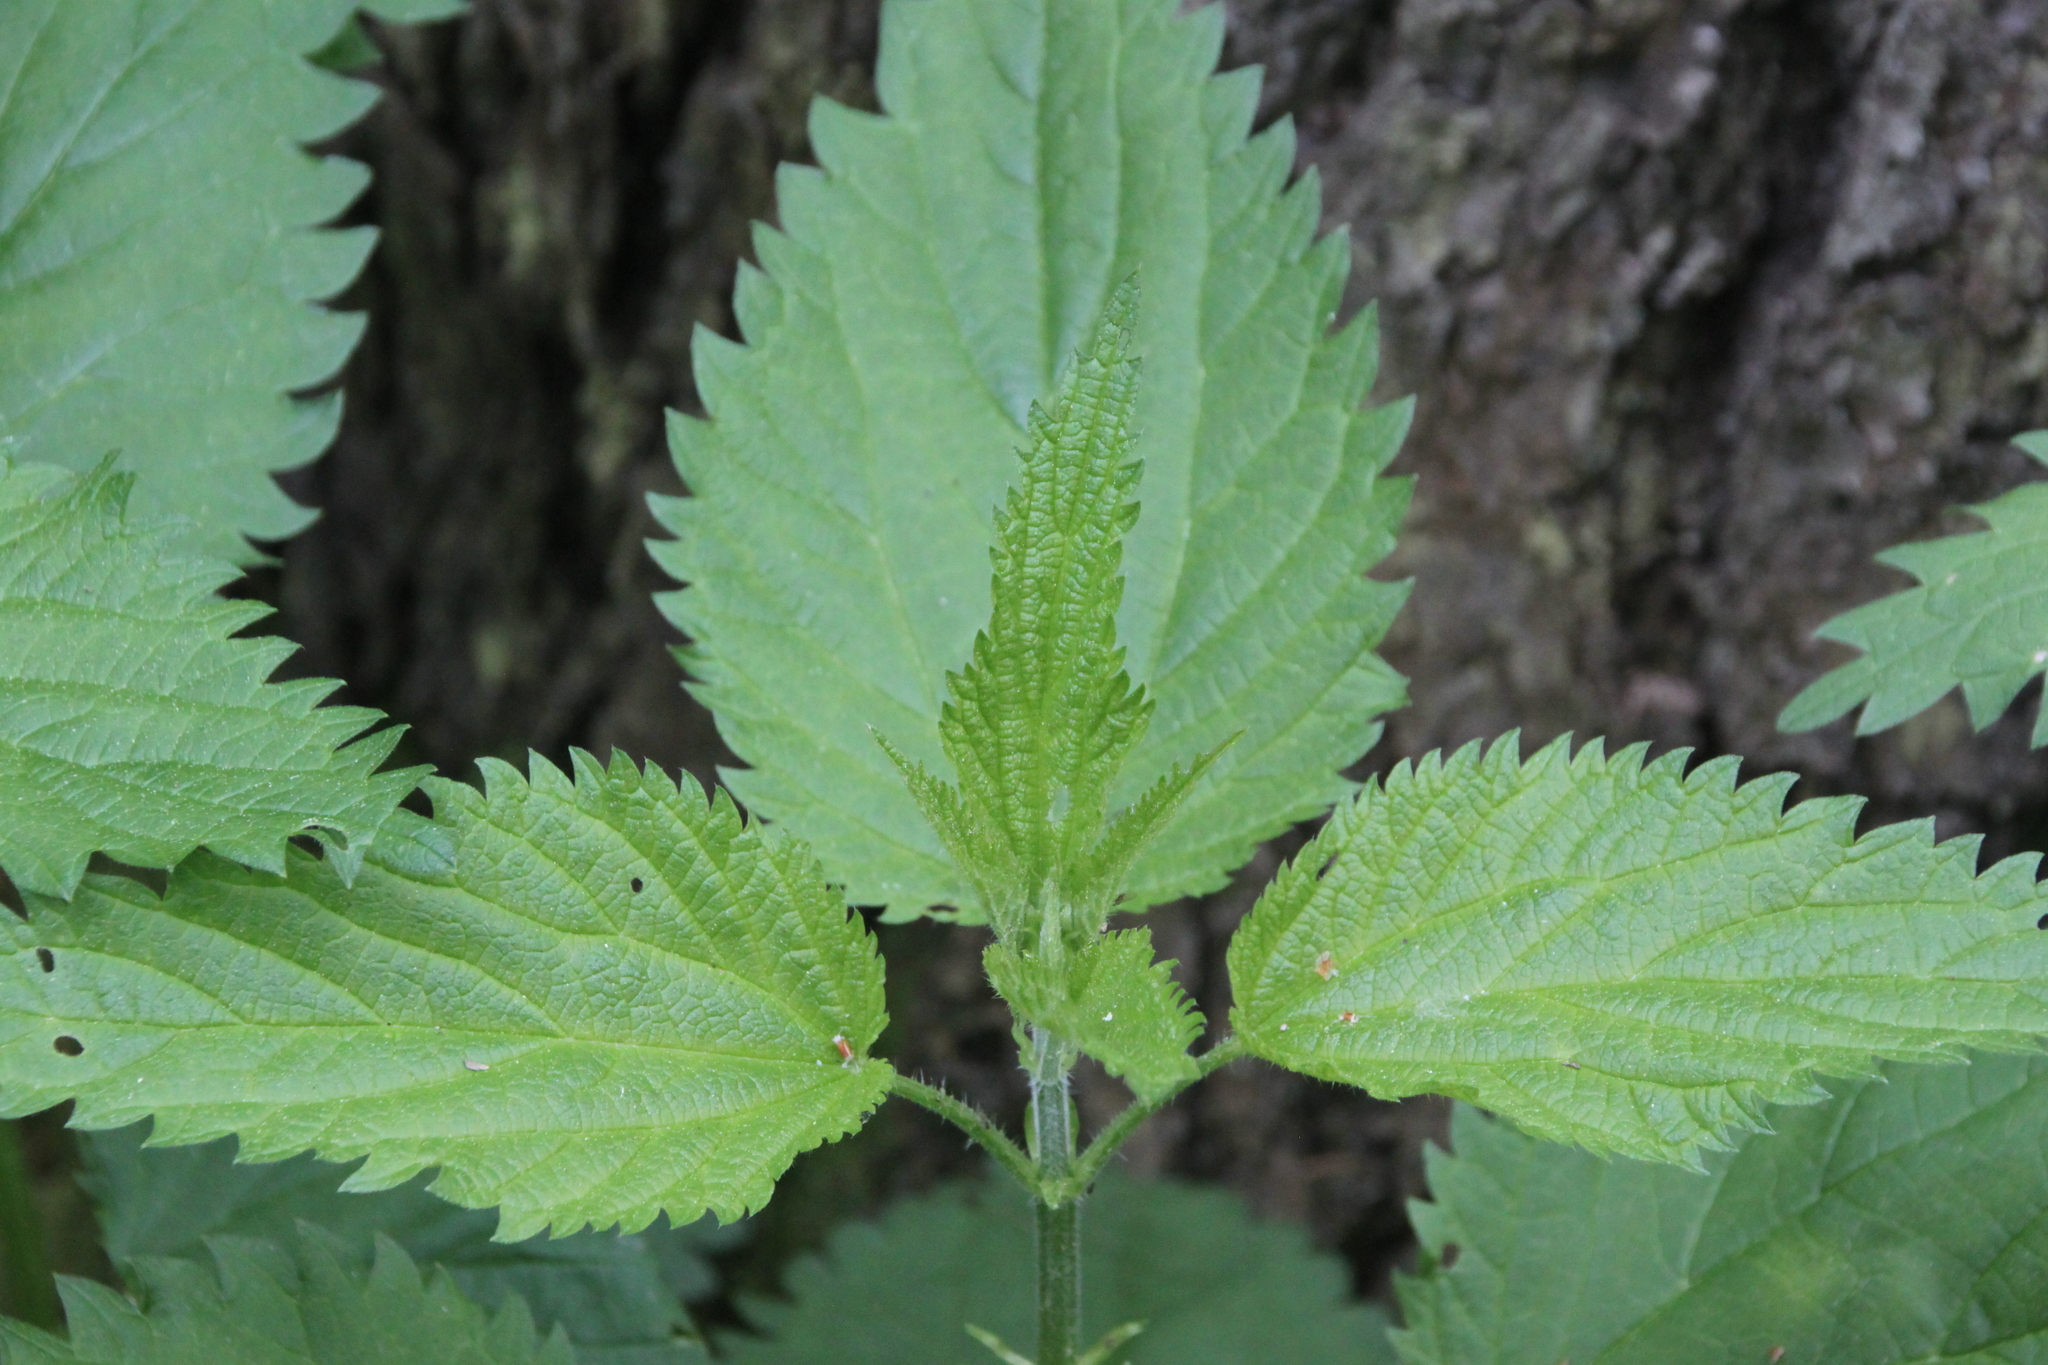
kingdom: Plantae
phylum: Tracheophyta
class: Magnoliopsida
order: Rosales
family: Urticaceae
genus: Urtica
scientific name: Urtica dioica
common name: Common nettle
